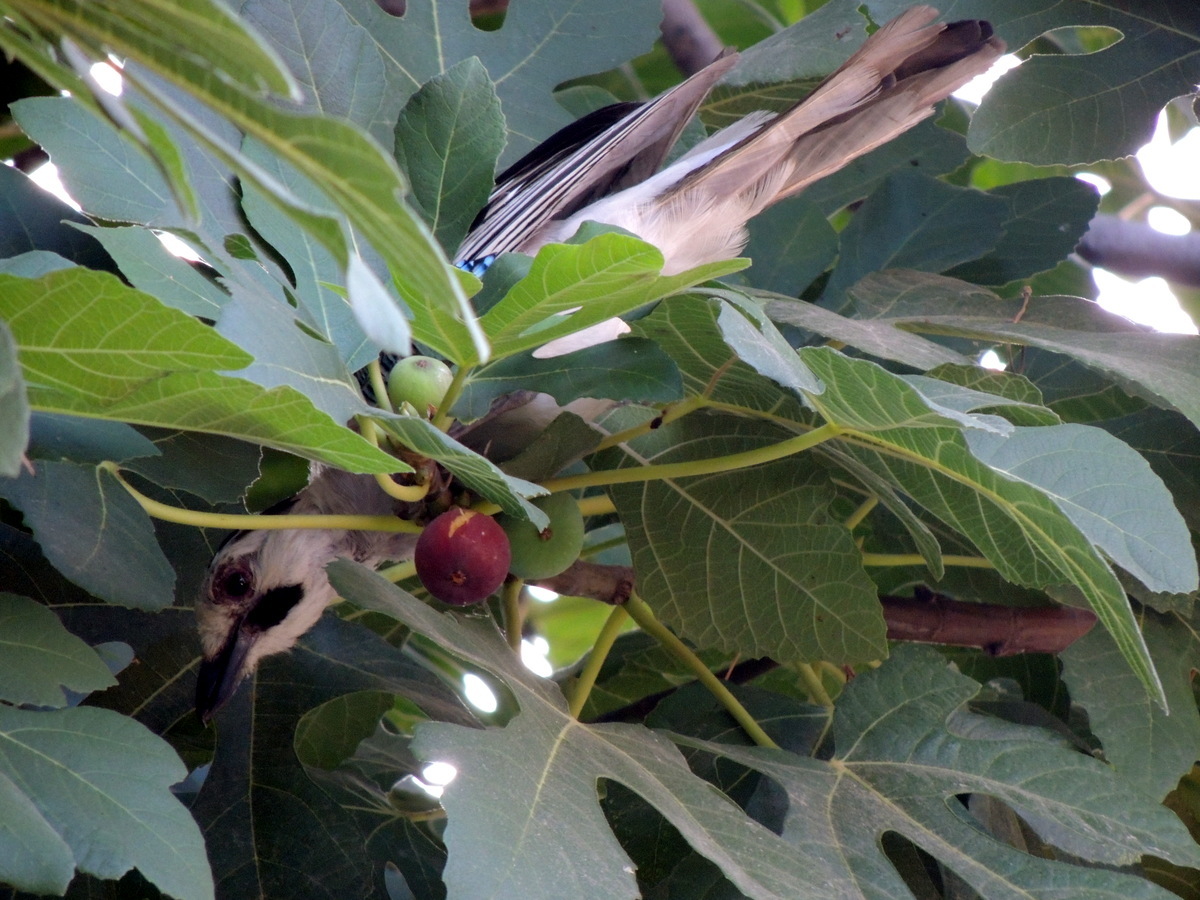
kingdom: Plantae
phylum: Tracheophyta
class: Magnoliopsida
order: Rosales
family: Moraceae
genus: Ficus
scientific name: Ficus carica
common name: Fig
